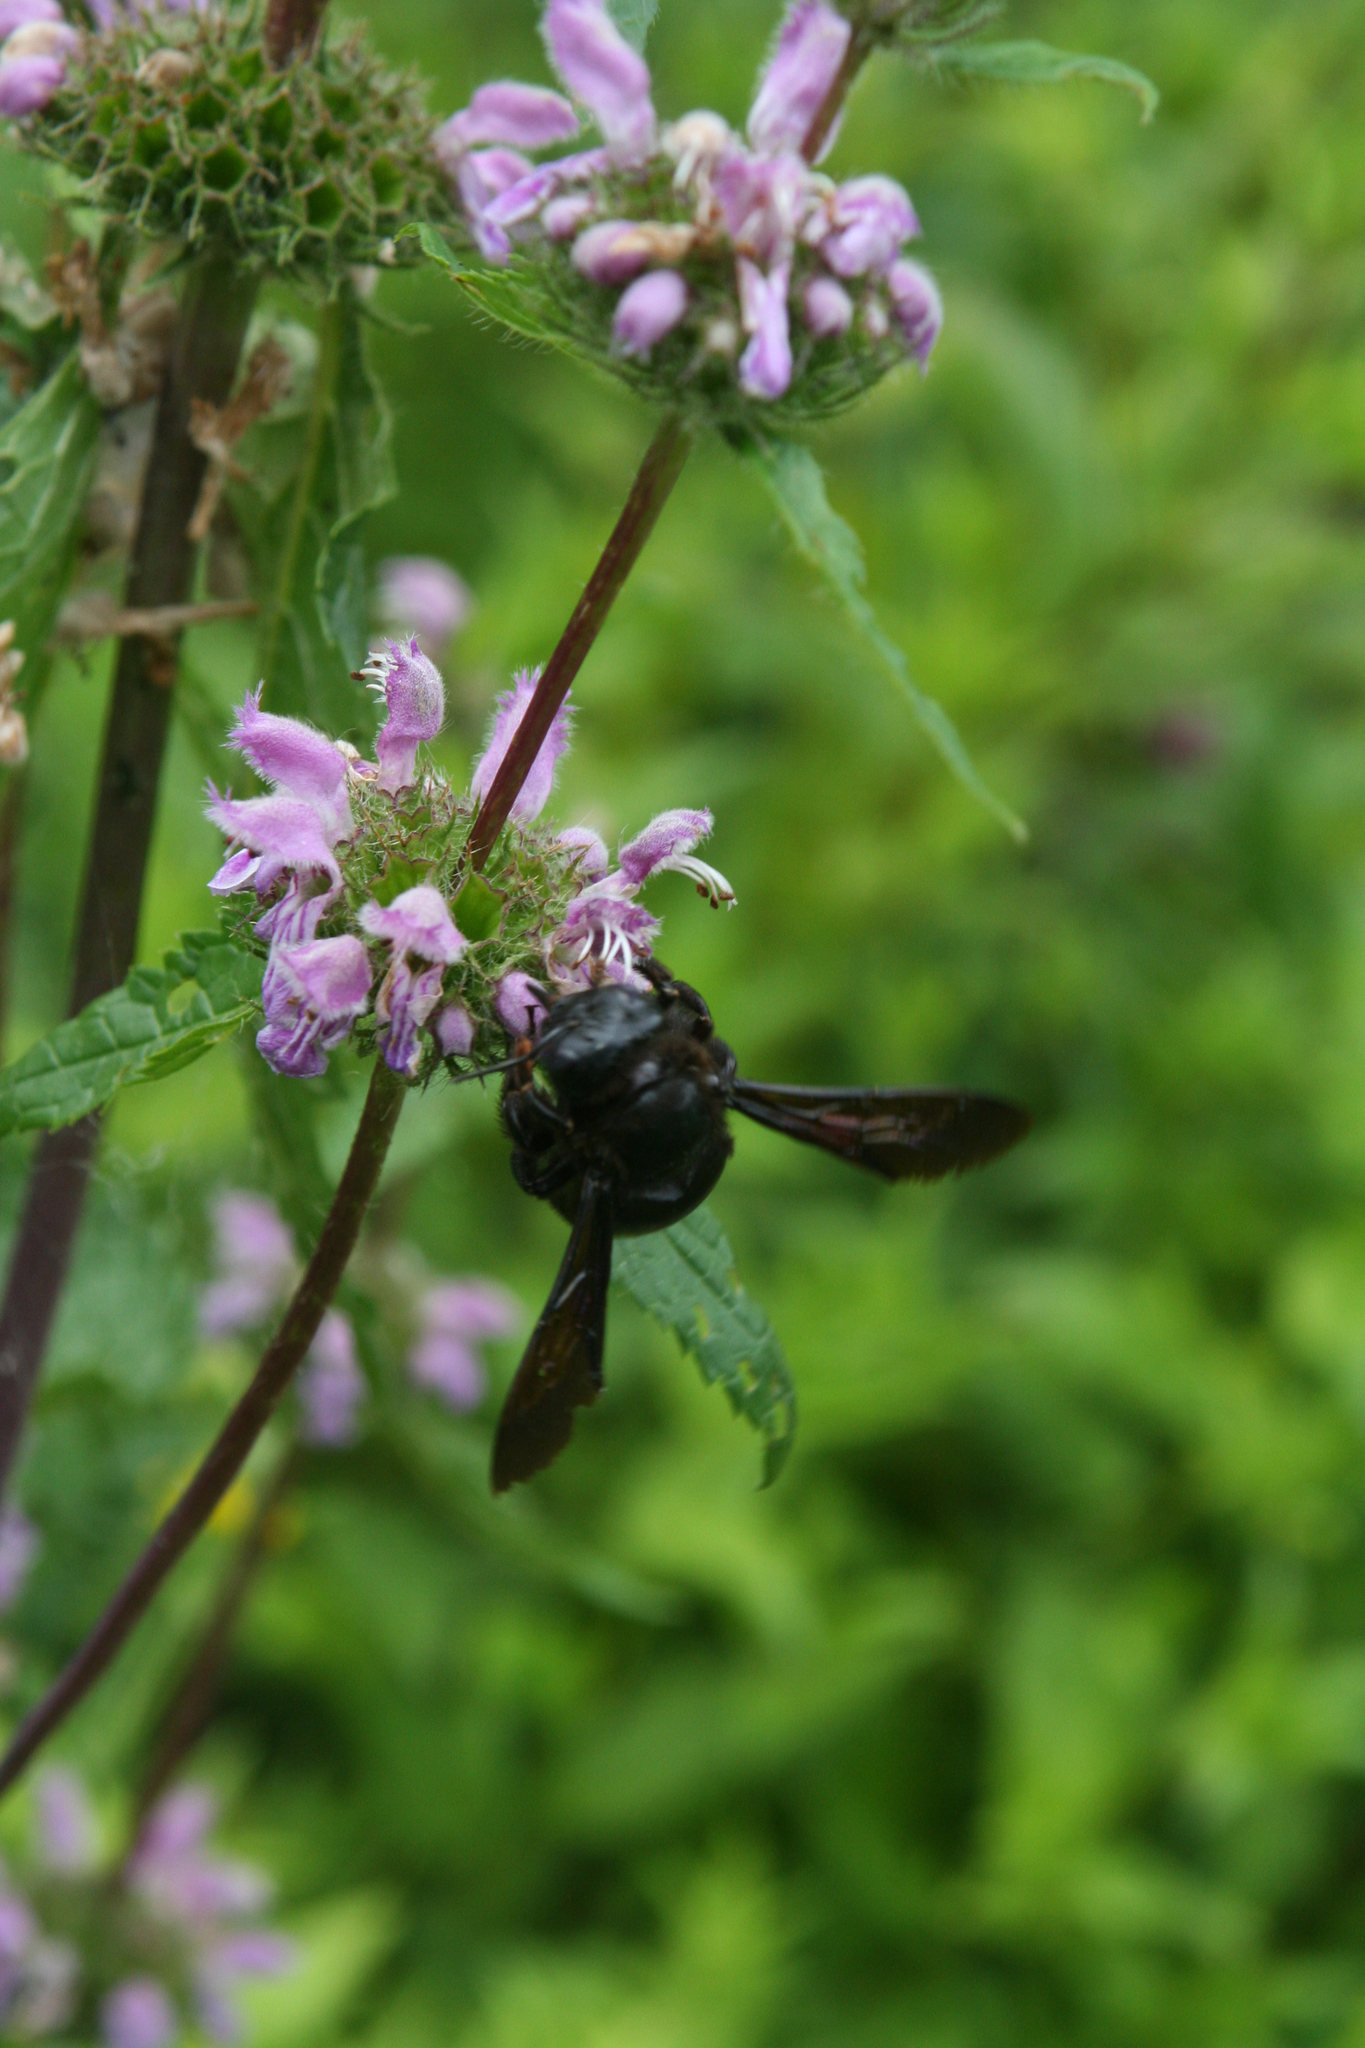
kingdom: Plantae
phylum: Tracheophyta
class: Magnoliopsida
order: Lamiales
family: Lamiaceae
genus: Phlomoides
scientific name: Phlomoides tuberosa
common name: Tuberous jerusalem sage
